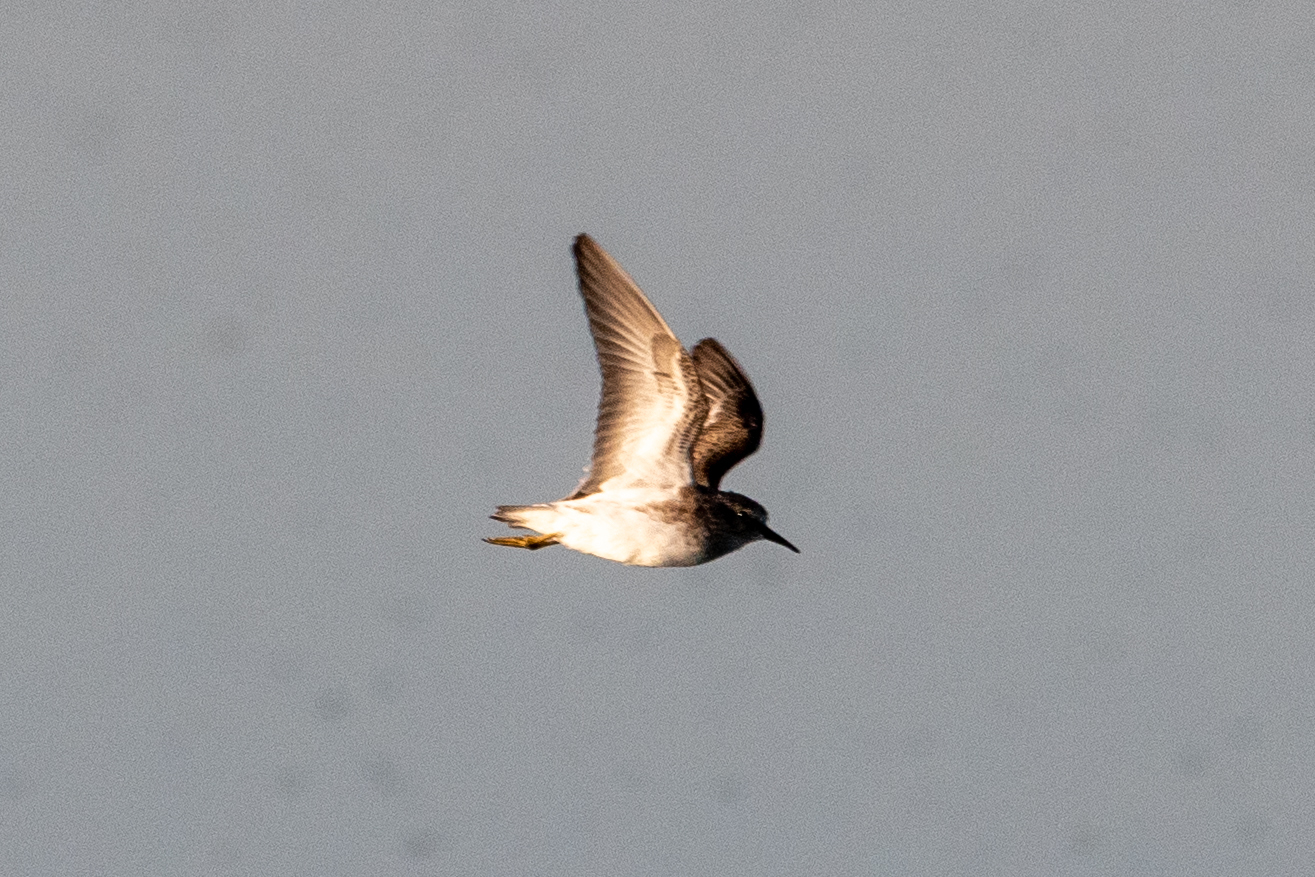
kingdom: Animalia
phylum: Chordata
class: Aves
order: Charadriiformes
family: Scolopacidae
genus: Calidris
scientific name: Calidris minutilla
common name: Least sandpiper
